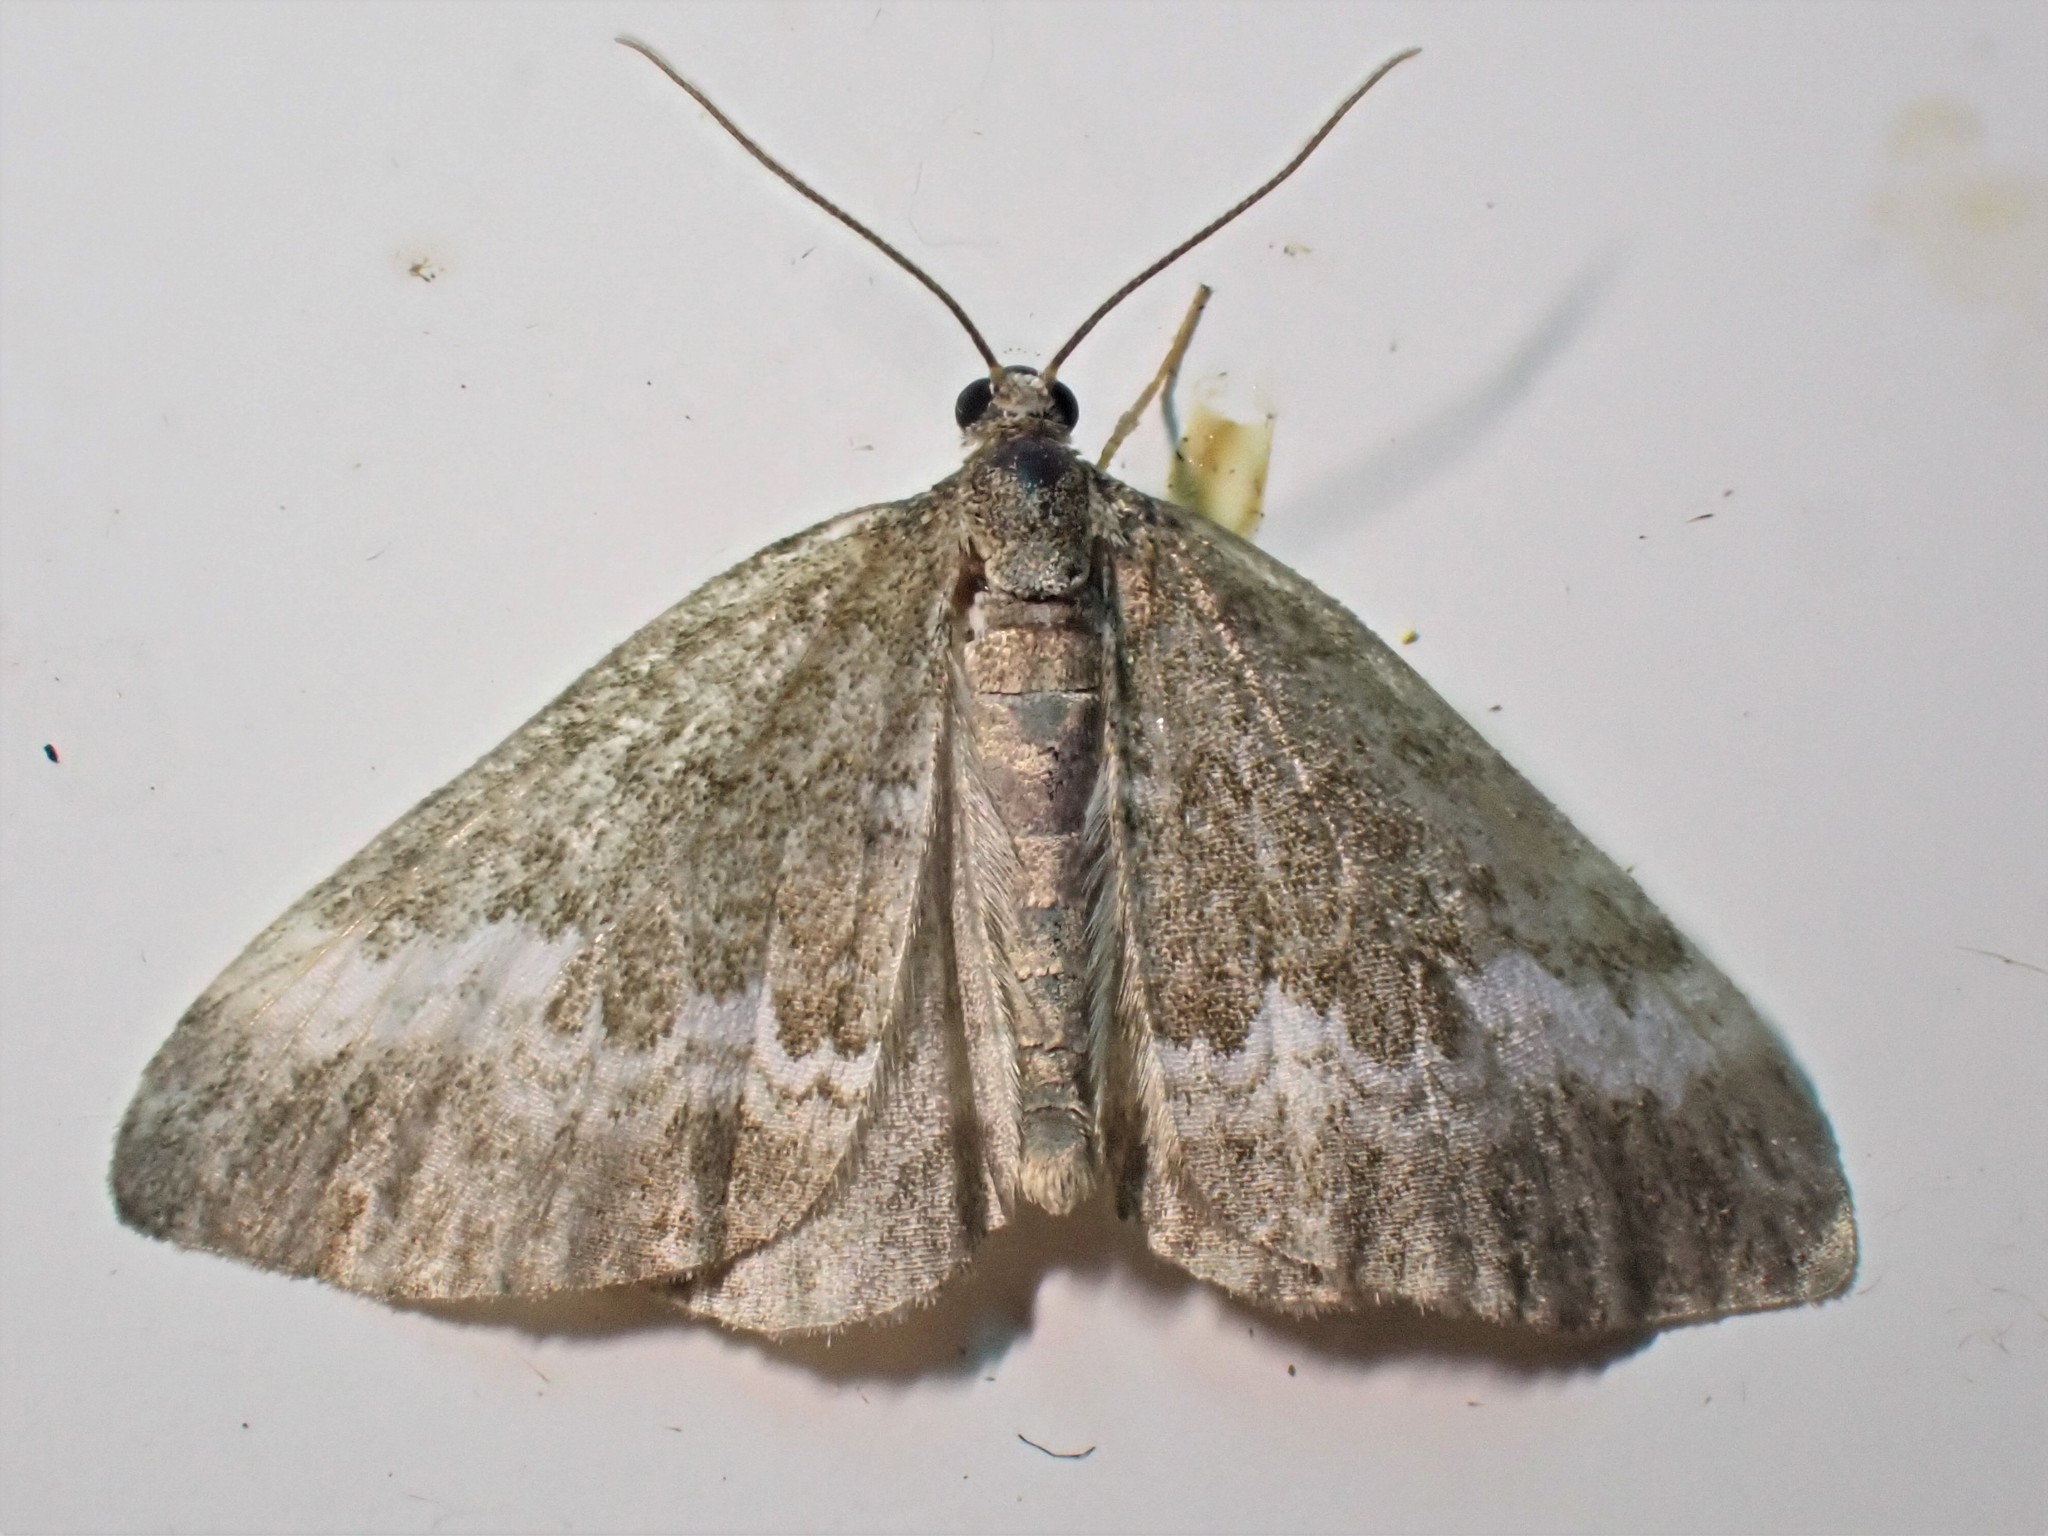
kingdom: Animalia
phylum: Arthropoda
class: Insecta
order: Lepidoptera
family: Geometridae
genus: Perizoma
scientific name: Perizoma alchemillata
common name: Small rivulet
